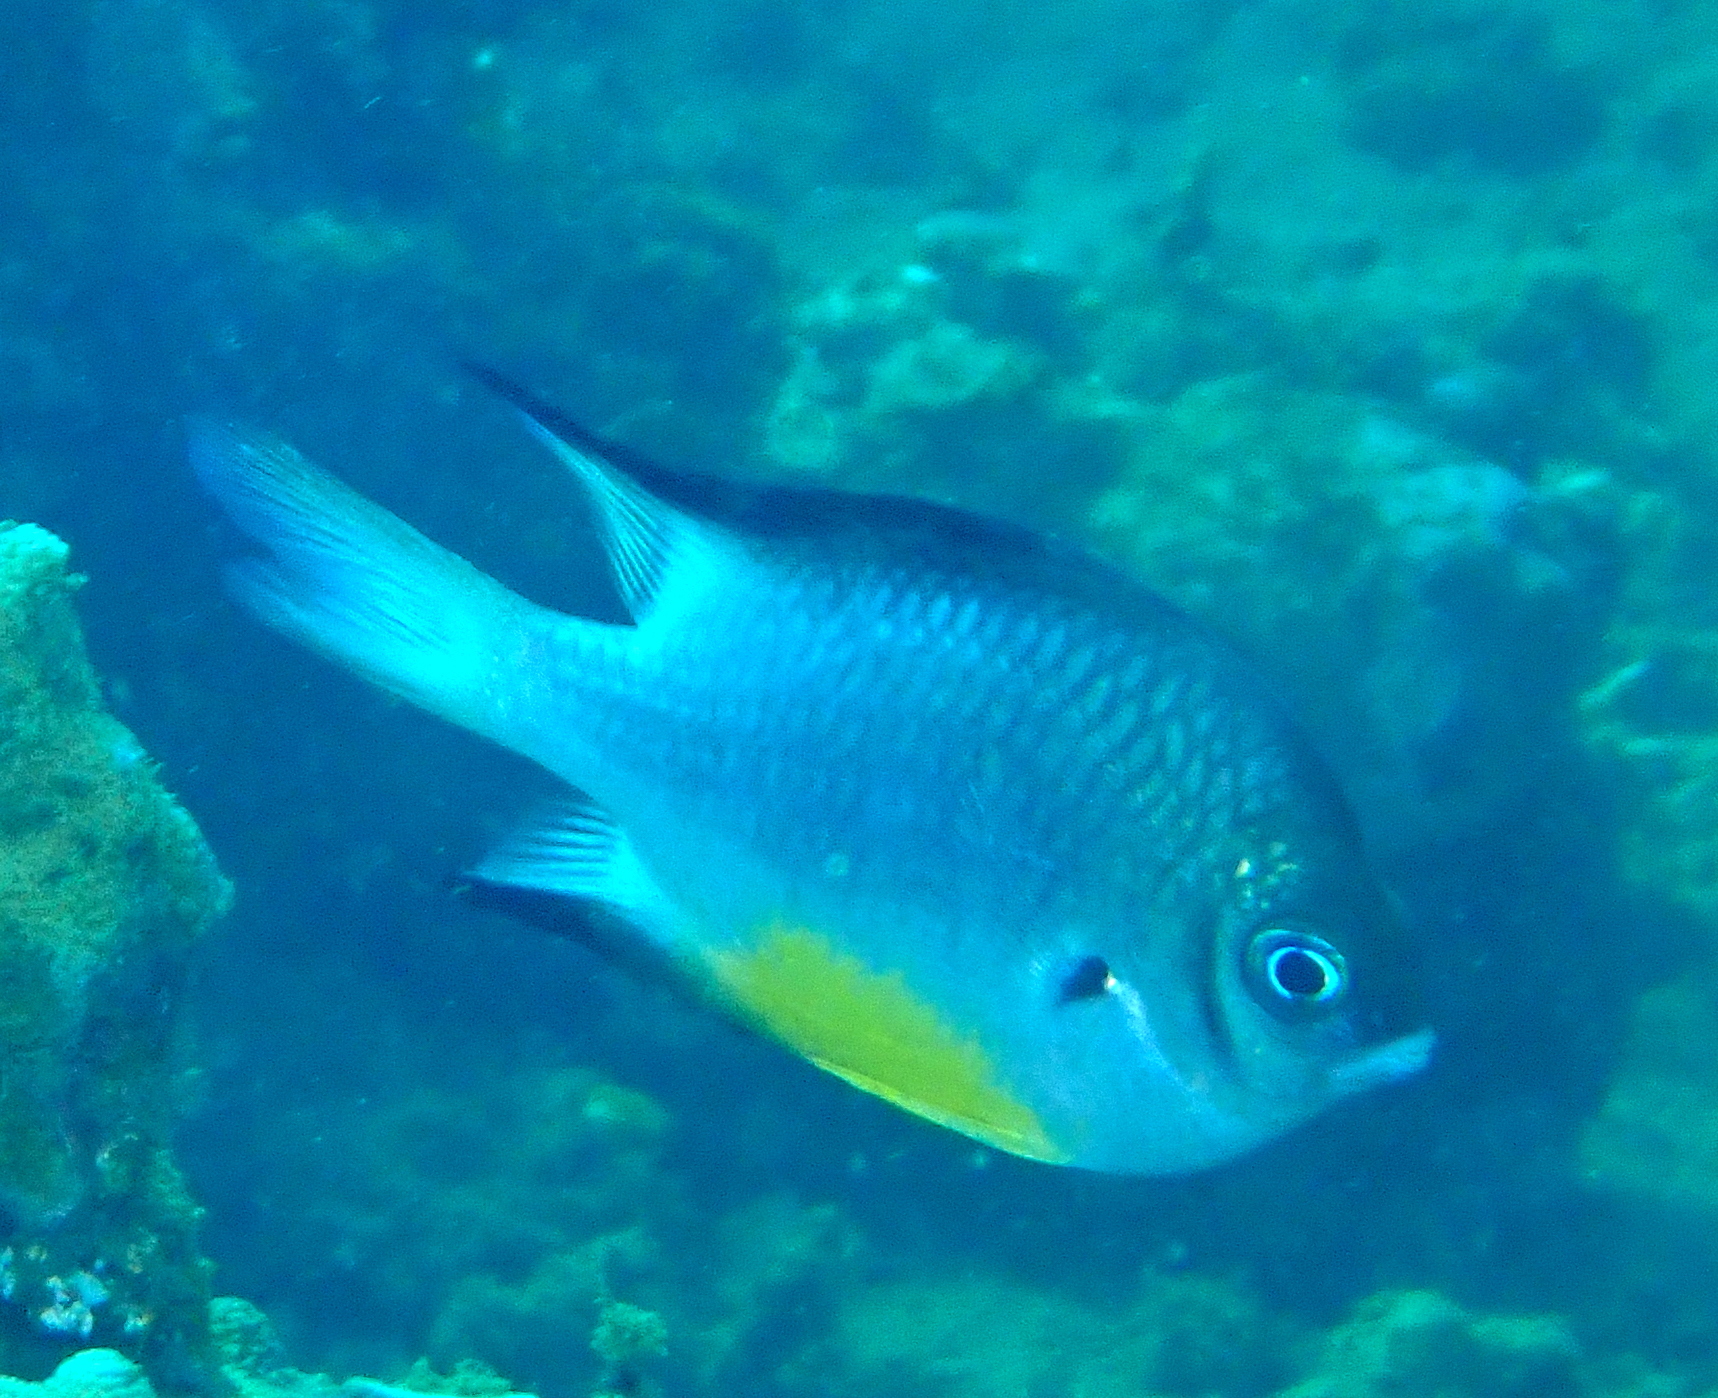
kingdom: Animalia
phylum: Chordata
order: Perciformes
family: Pomacentridae
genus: Amblyglyphidodon
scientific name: Amblyglyphidodon leucogaster
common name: White-belly damsel
